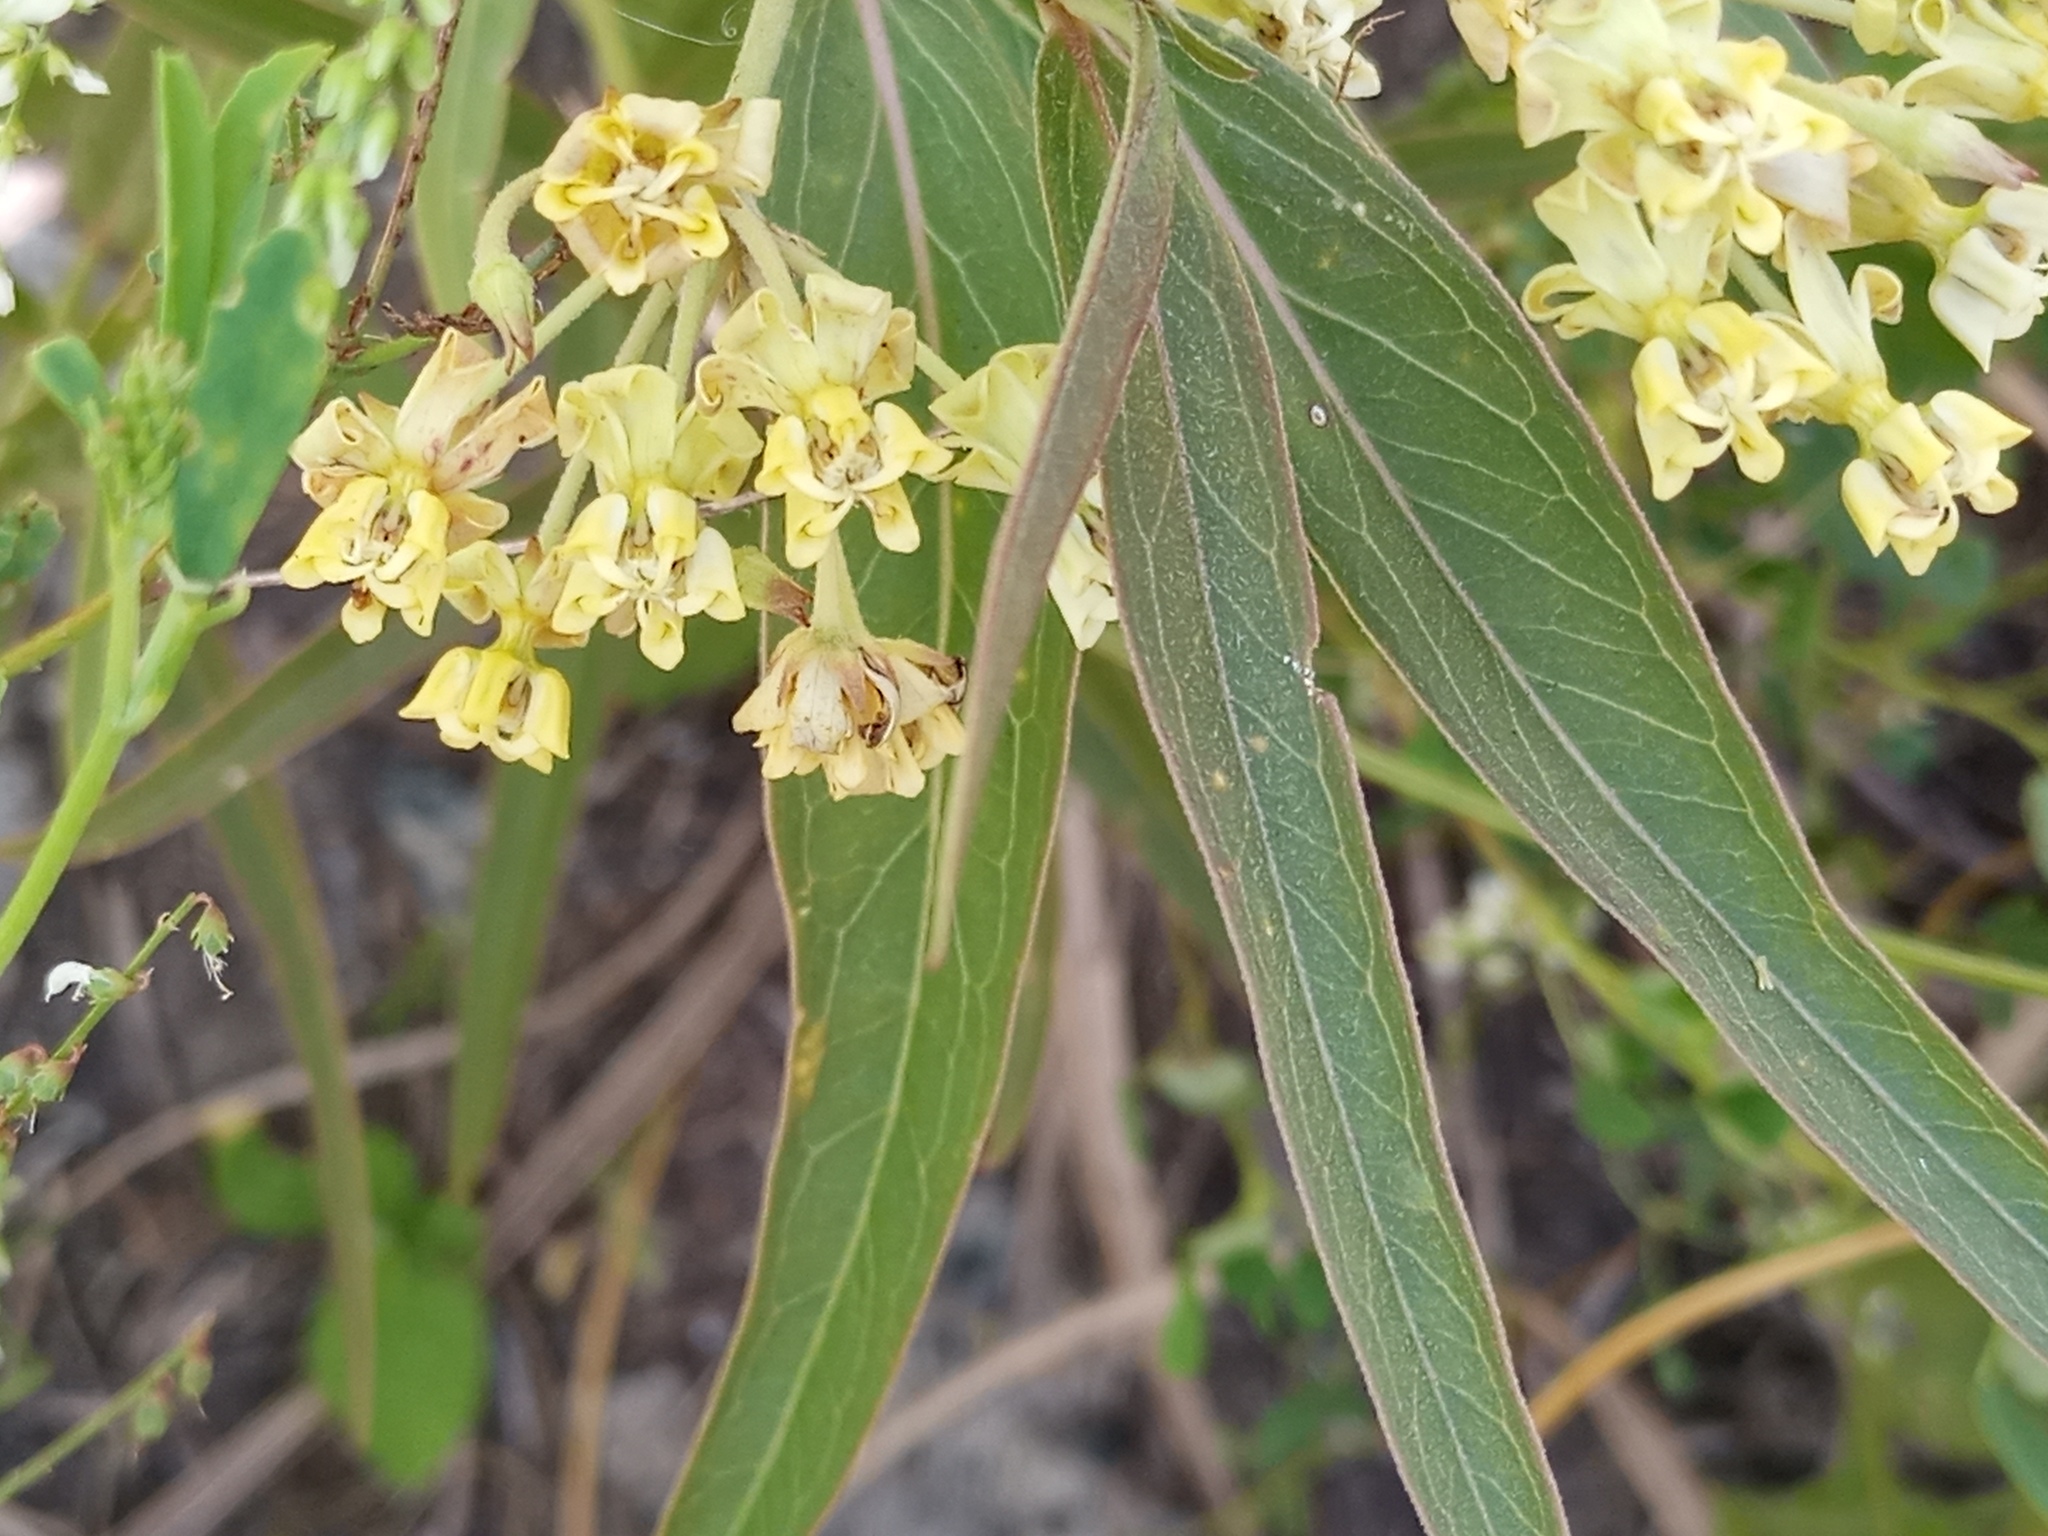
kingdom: Plantae
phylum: Tracheophyta
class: Magnoliopsida
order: Gentianales
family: Apocynaceae
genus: Asclepias
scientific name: Asclepias mellodora
